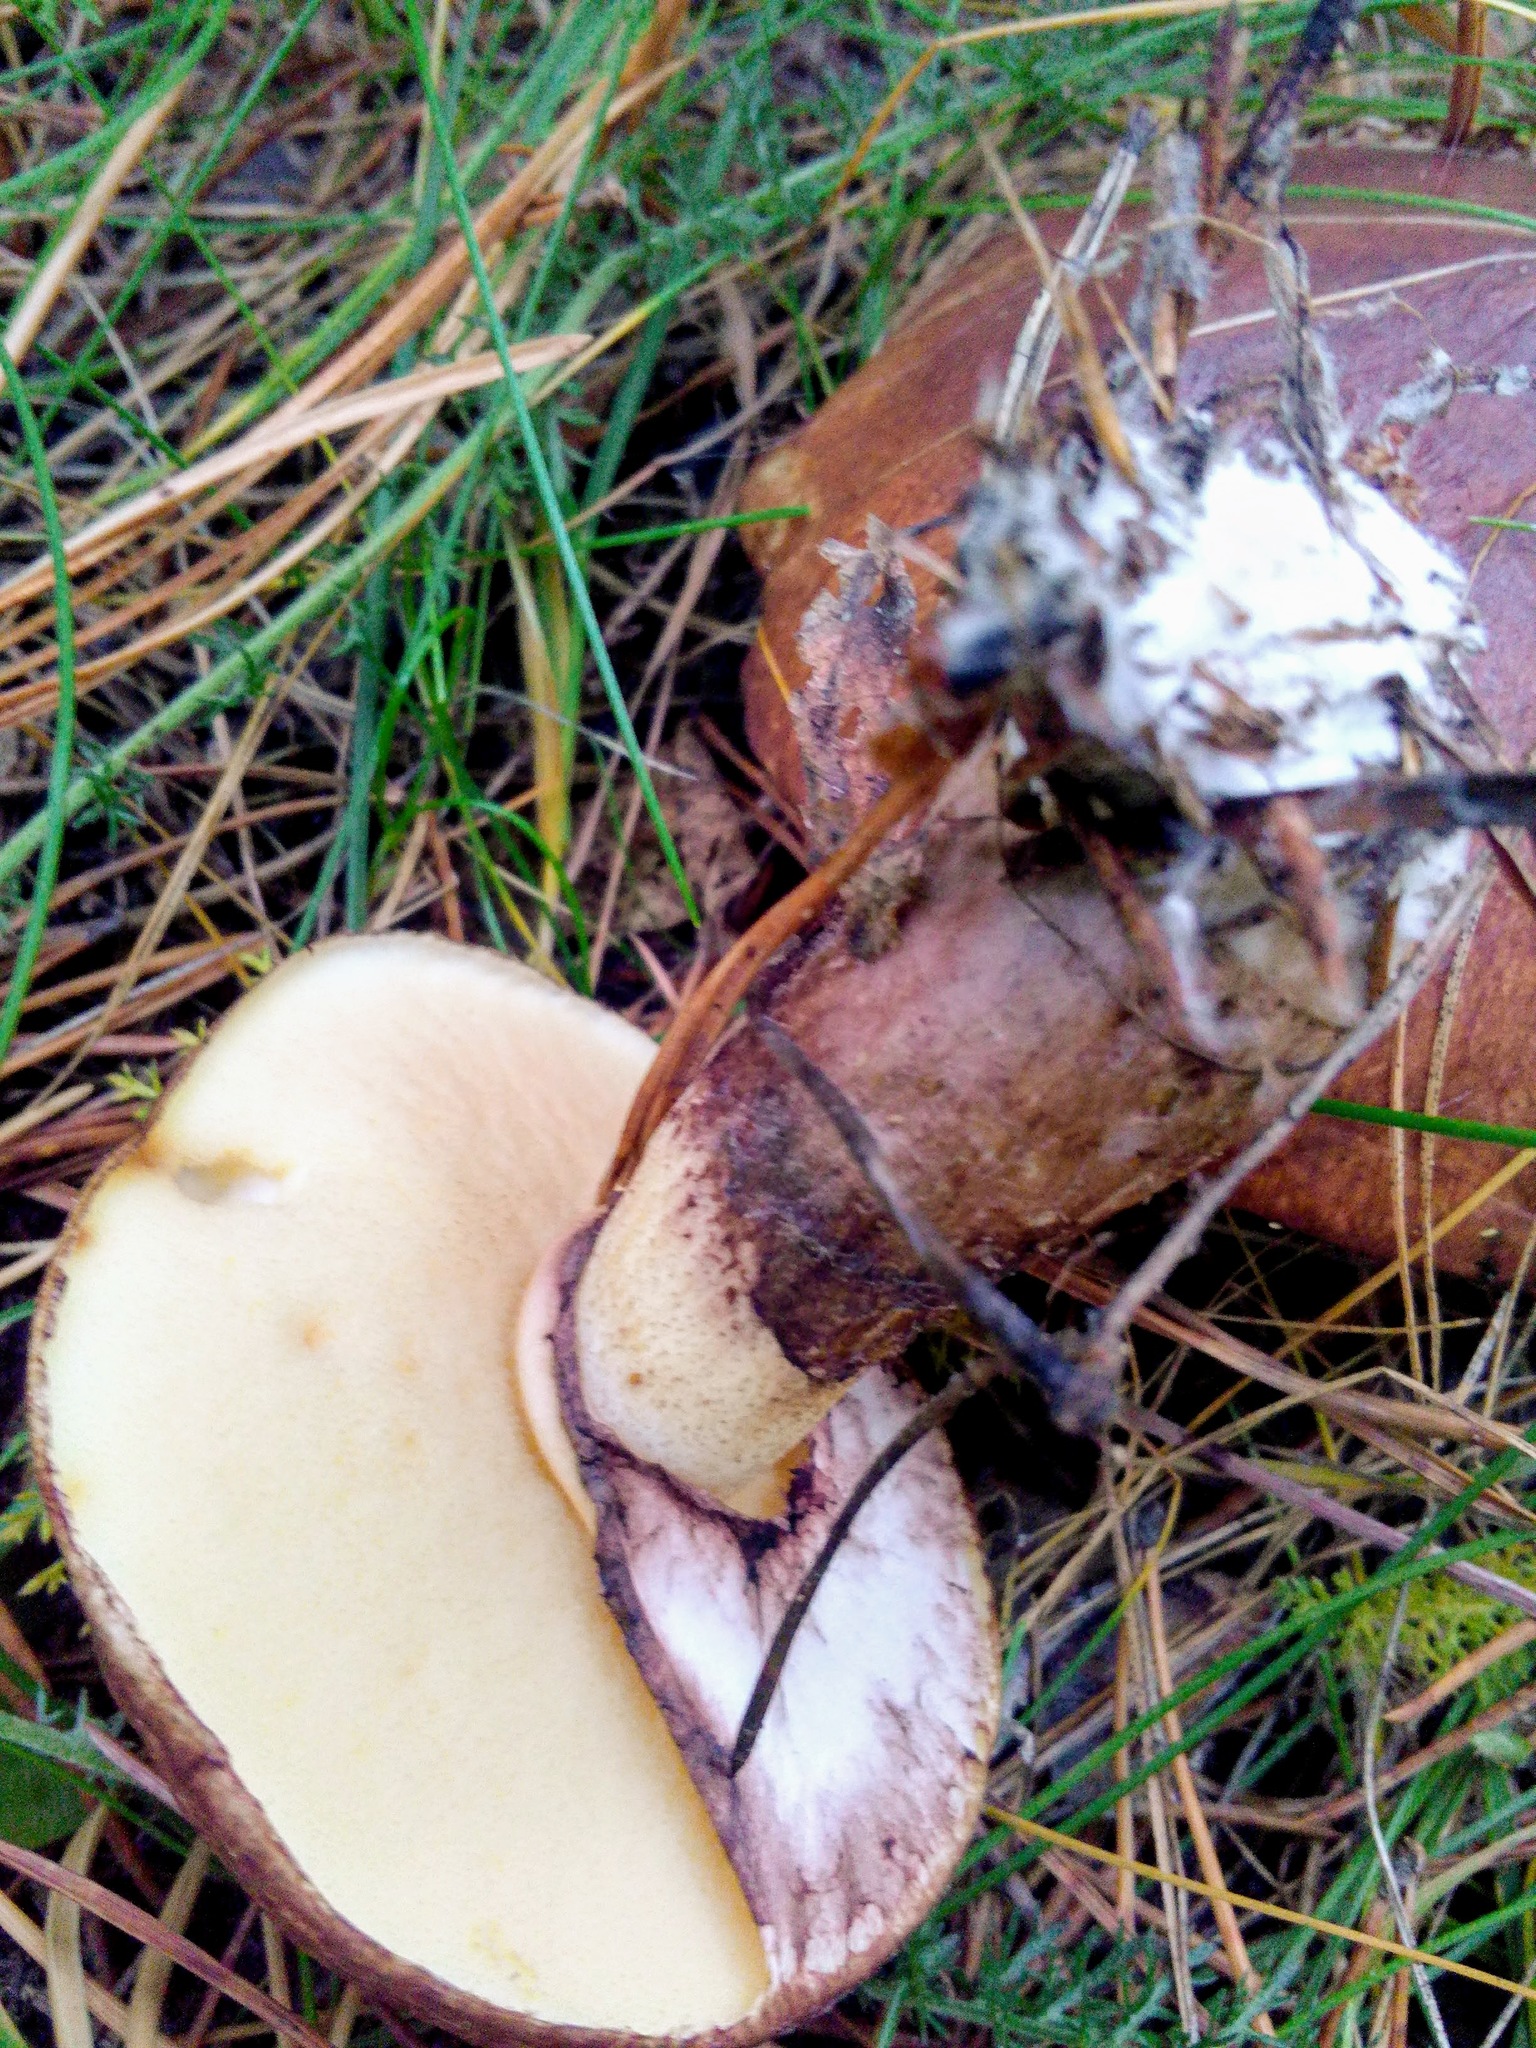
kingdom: Fungi
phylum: Basidiomycota
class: Agaricomycetes
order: Boletales
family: Suillaceae
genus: Suillus
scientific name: Suillus luteus
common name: Slippery jack
